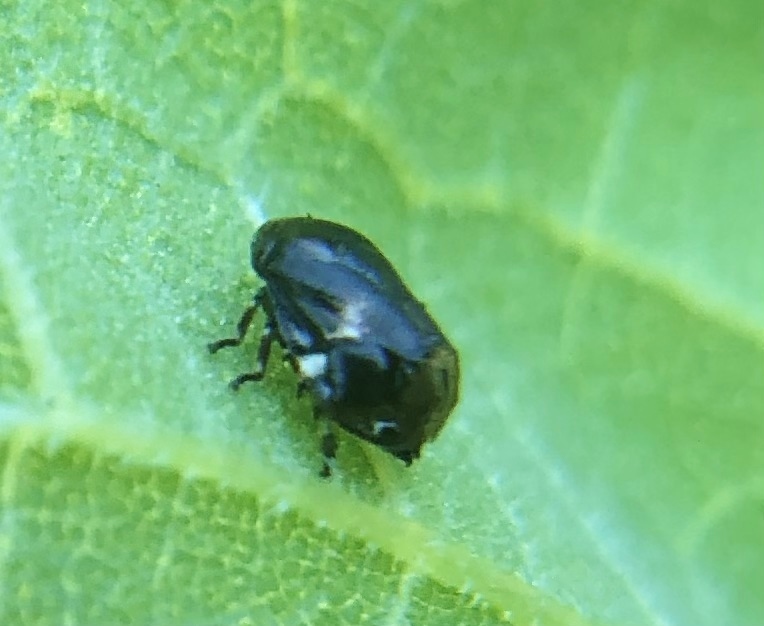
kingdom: Animalia
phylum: Arthropoda
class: Insecta
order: Hemiptera
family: Clastopteridae
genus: Clastoptera
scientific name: Clastoptera xanthocephala
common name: Sunflower spittlebug
